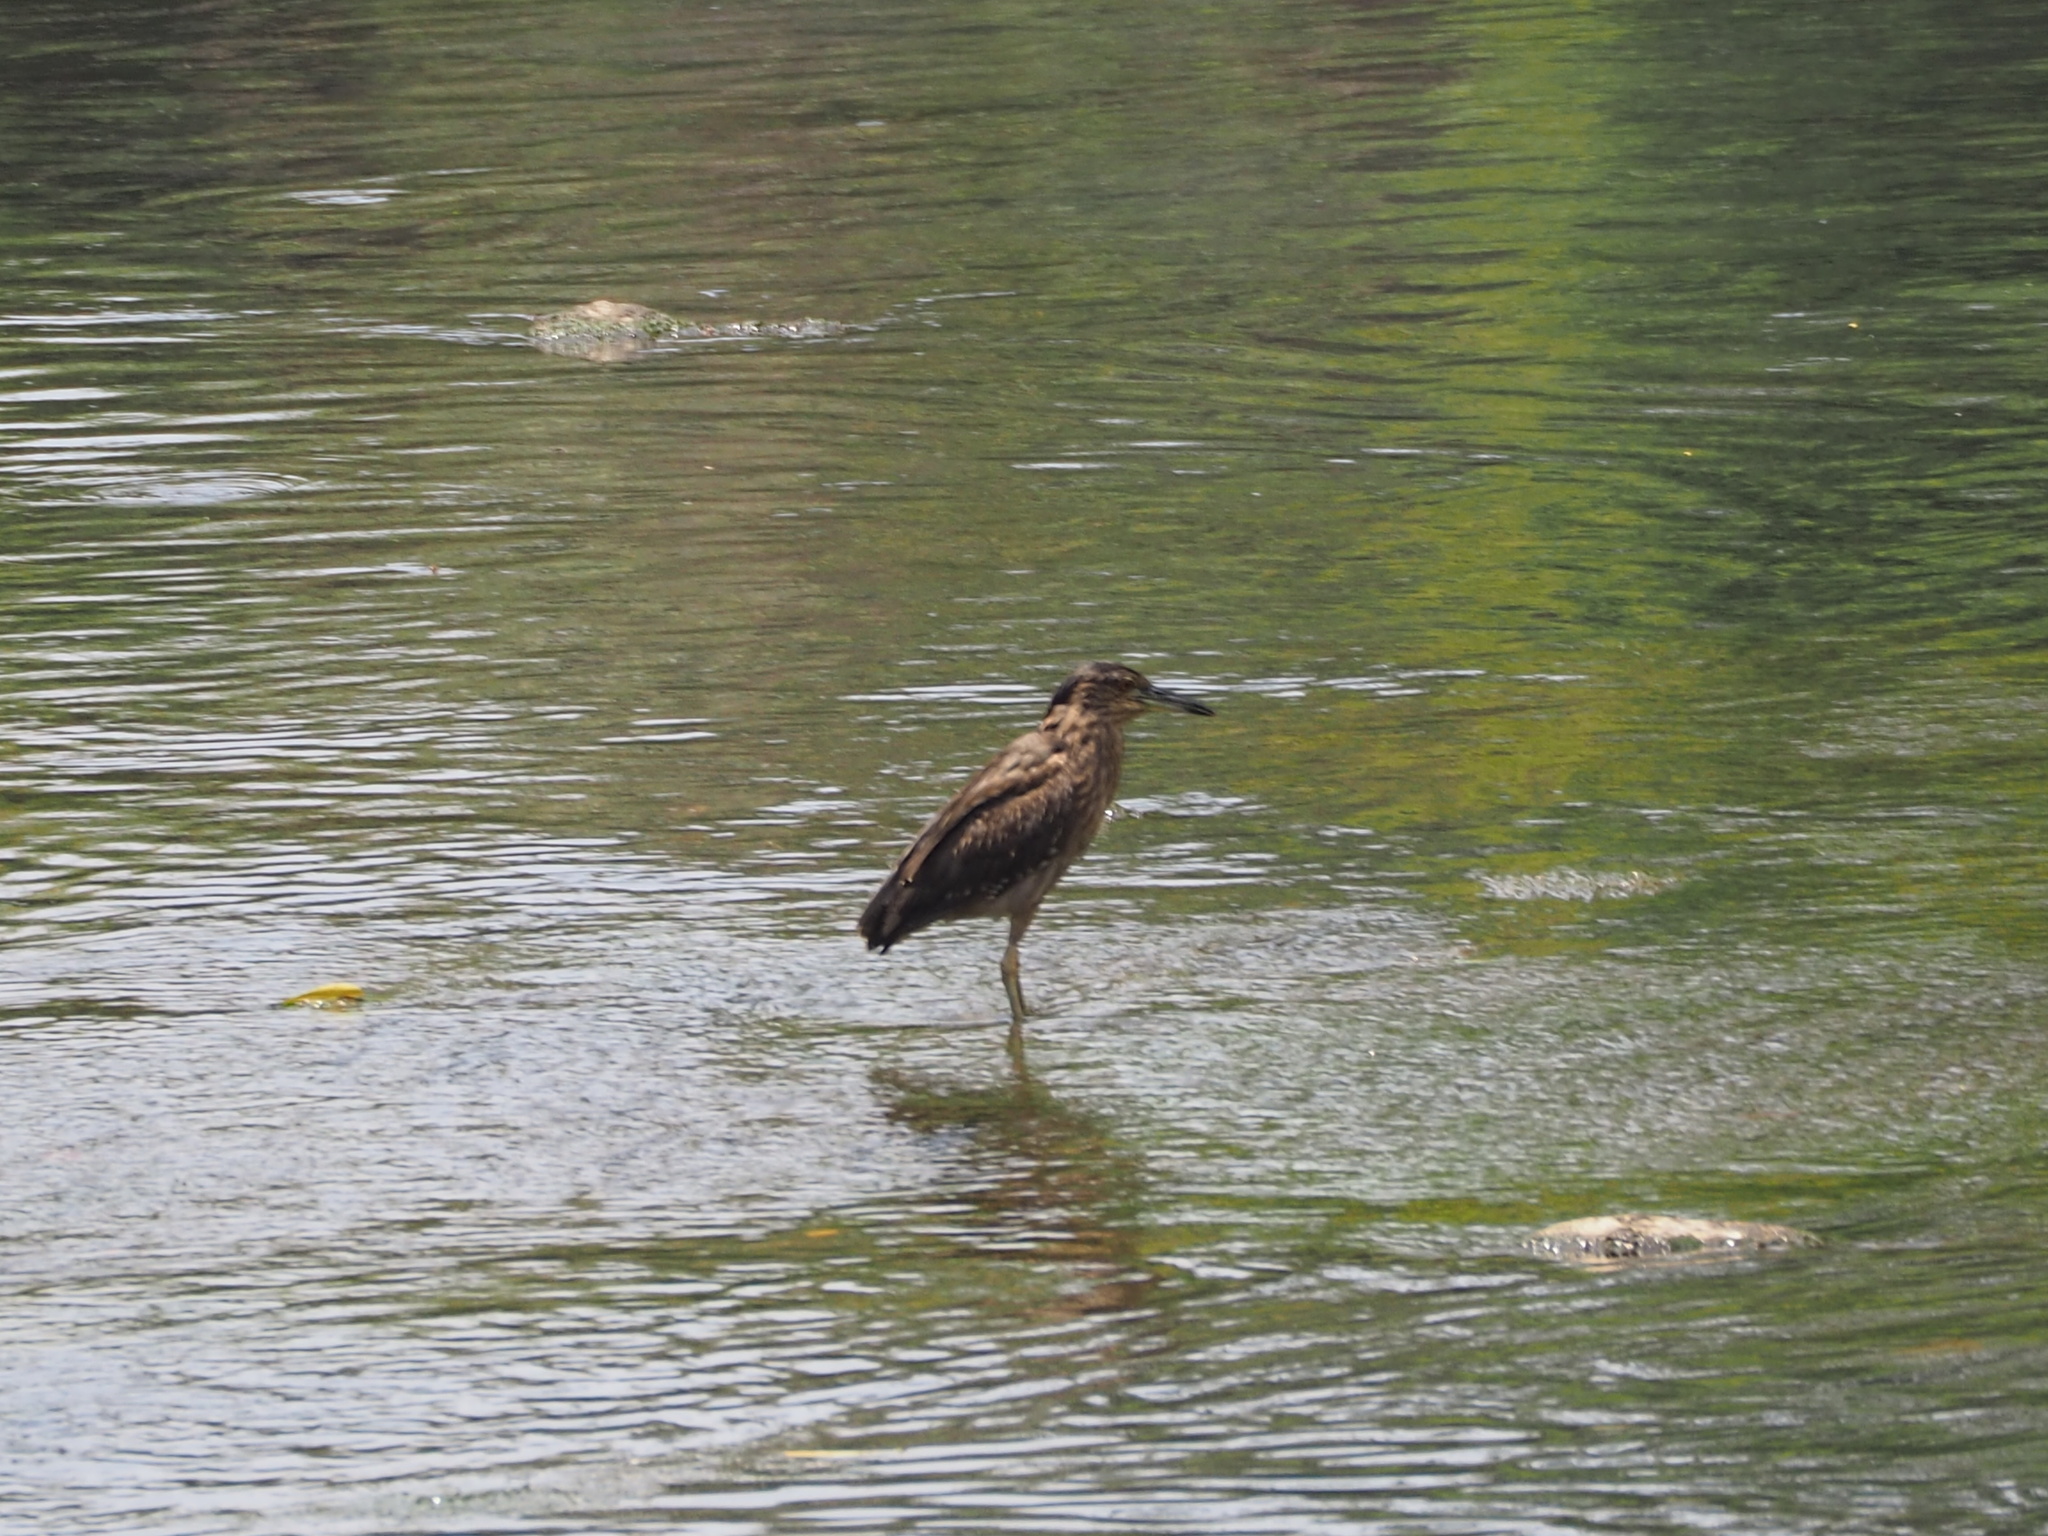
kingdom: Animalia
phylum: Chordata
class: Aves
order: Pelecaniformes
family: Ardeidae
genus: Nycticorax
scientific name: Nycticorax nycticorax
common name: Black-crowned night heron
